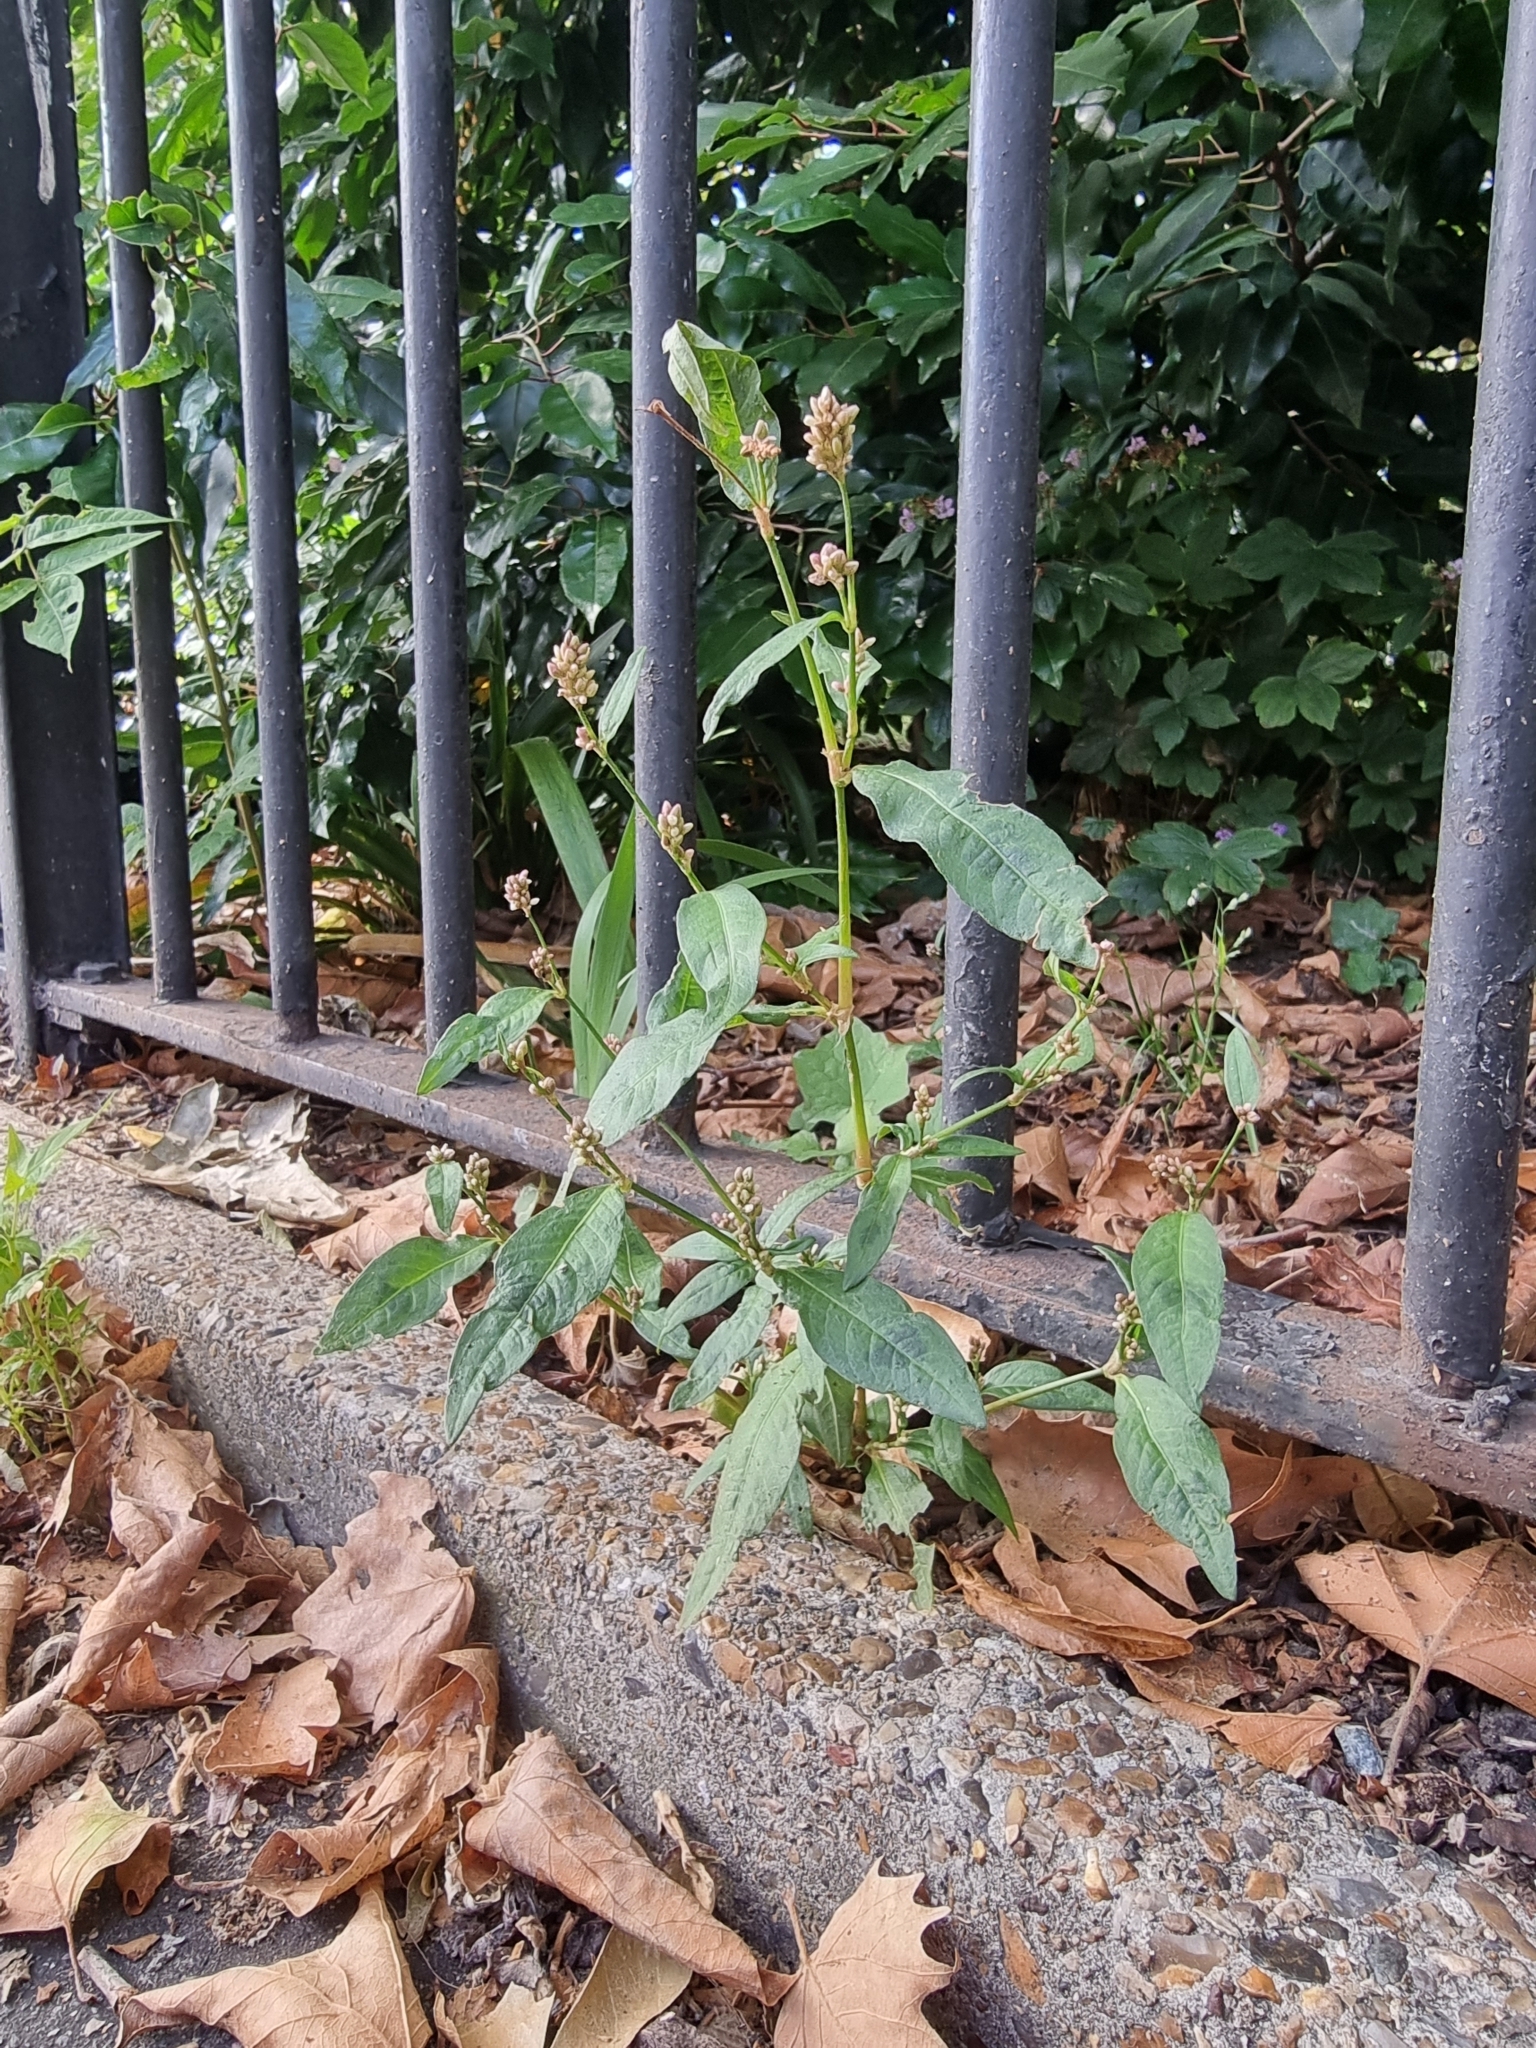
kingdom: Plantae
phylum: Tracheophyta
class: Magnoliopsida
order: Caryophyllales
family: Polygonaceae
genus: Persicaria
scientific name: Persicaria maculosa
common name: Redshank
